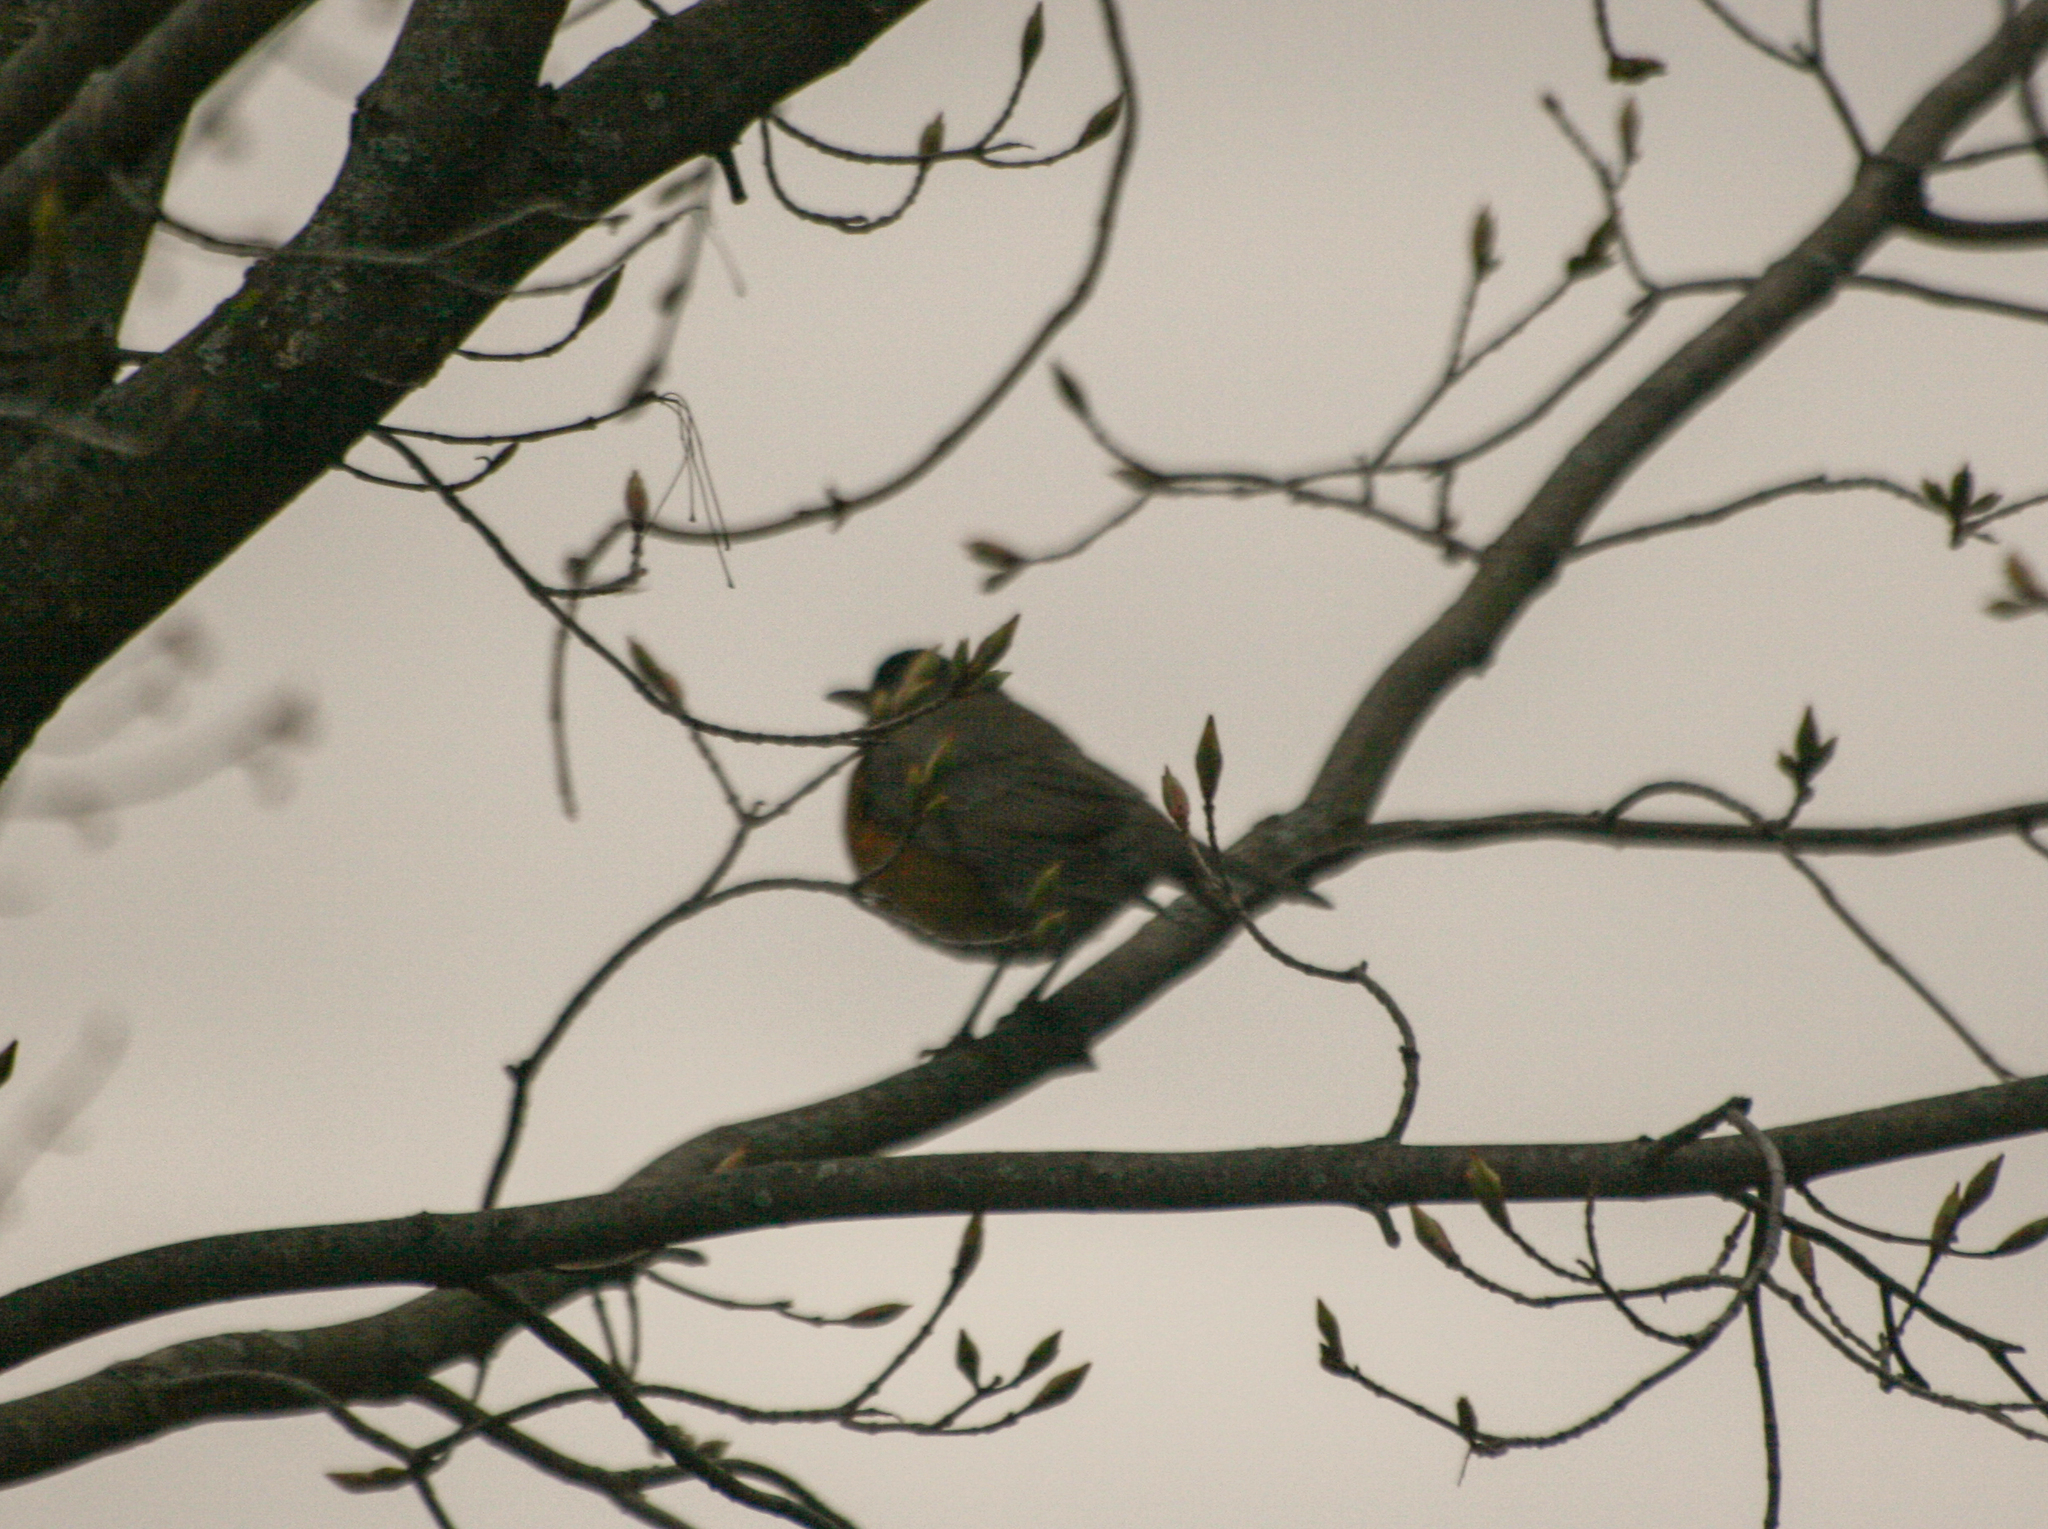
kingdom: Animalia
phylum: Chordata
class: Aves
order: Passeriformes
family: Turdidae
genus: Turdus
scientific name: Turdus migratorius
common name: American robin
